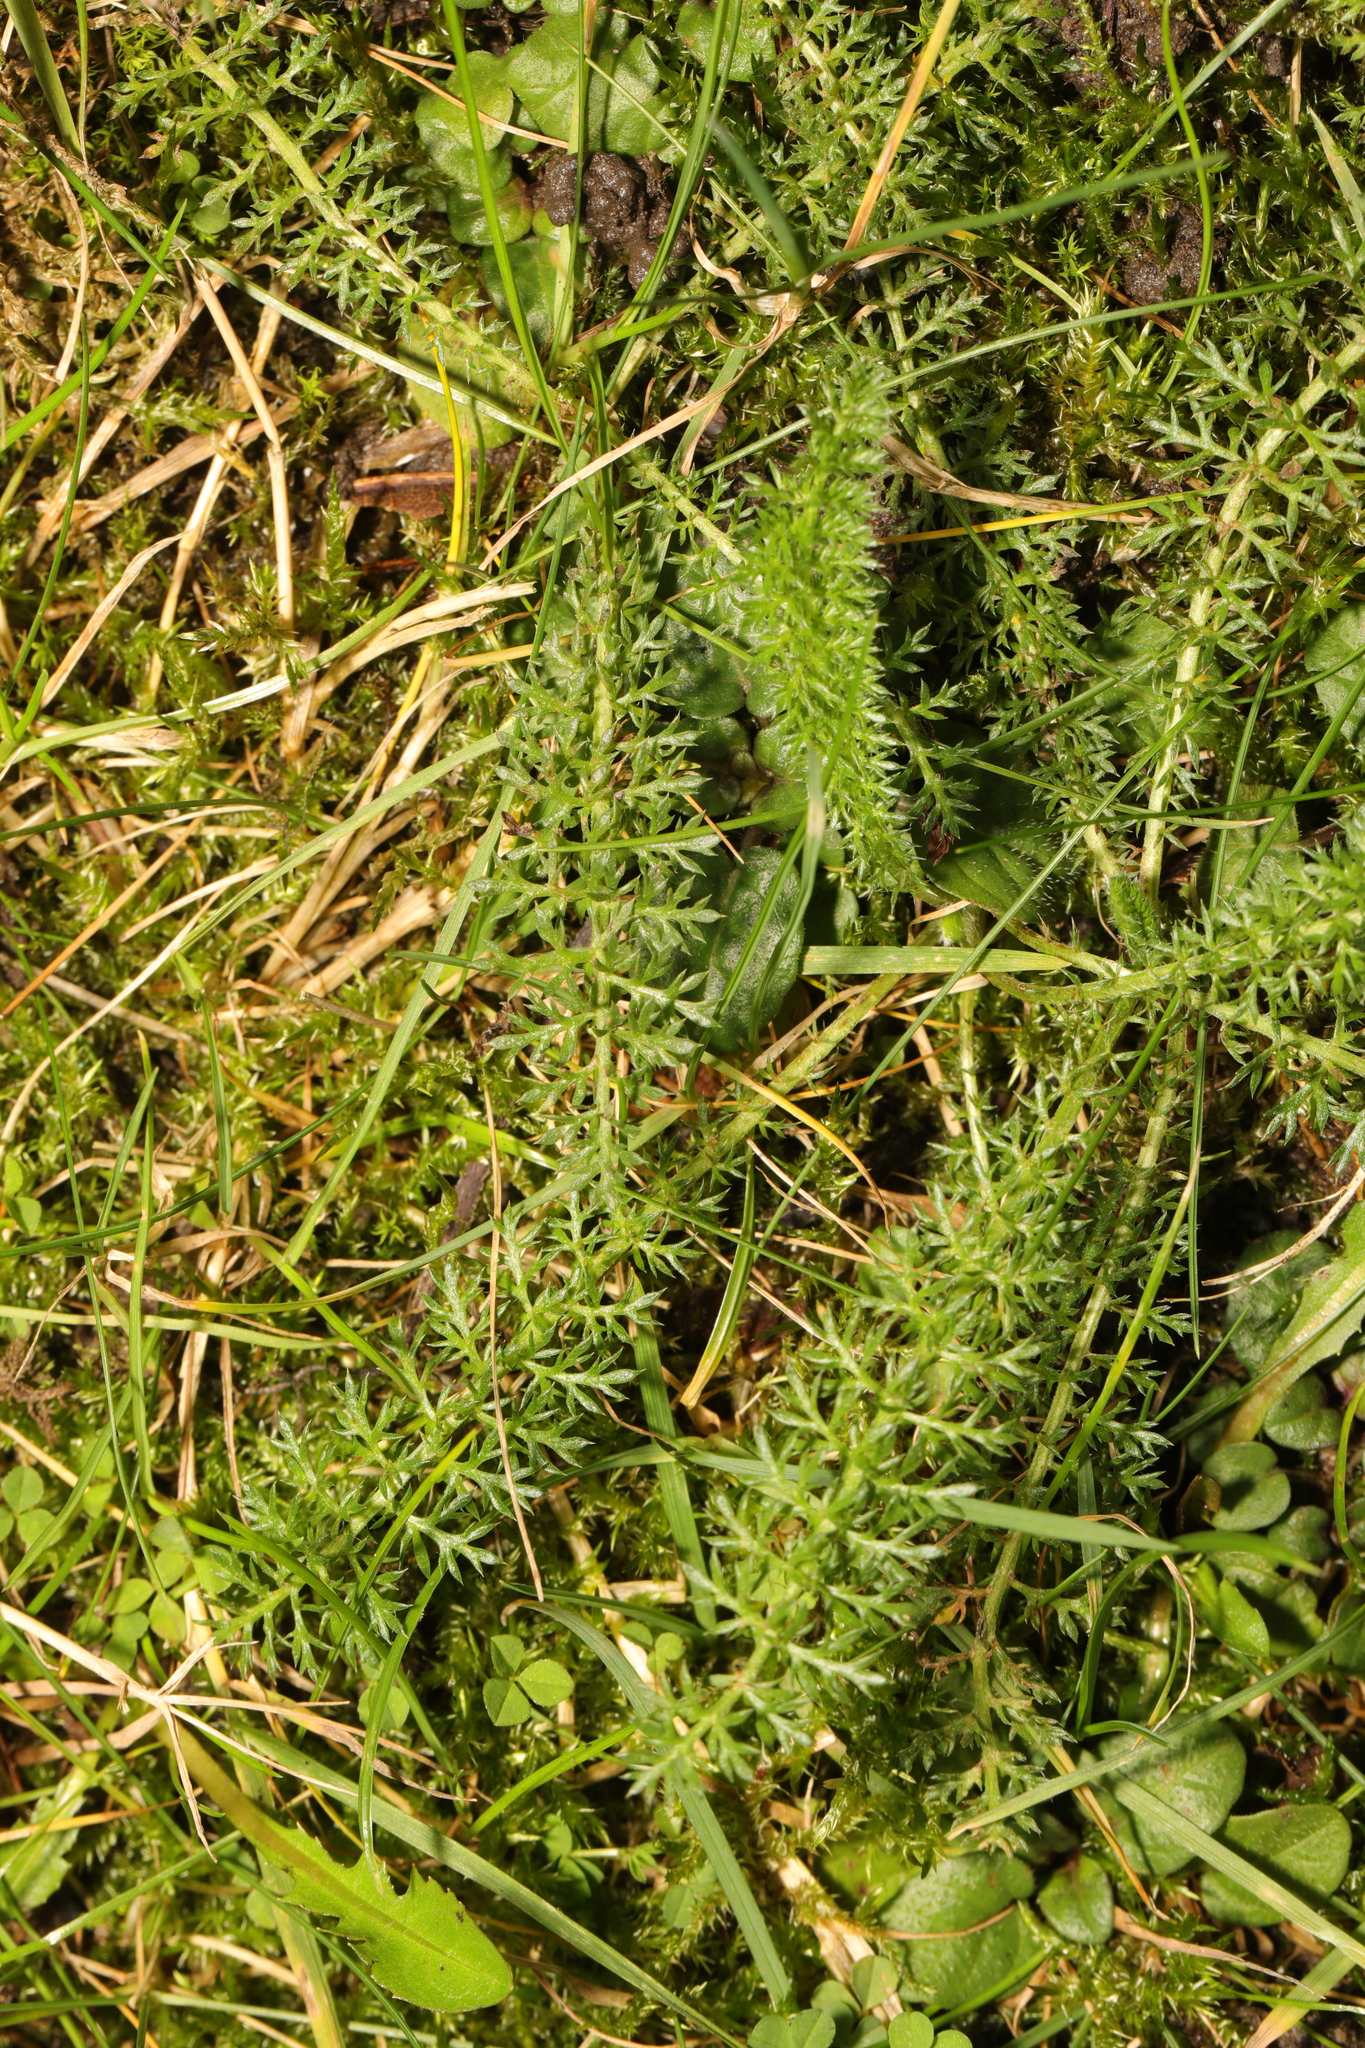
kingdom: Plantae
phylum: Tracheophyta
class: Magnoliopsida
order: Asterales
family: Asteraceae
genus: Achillea
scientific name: Achillea millefolium
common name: Yarrow
